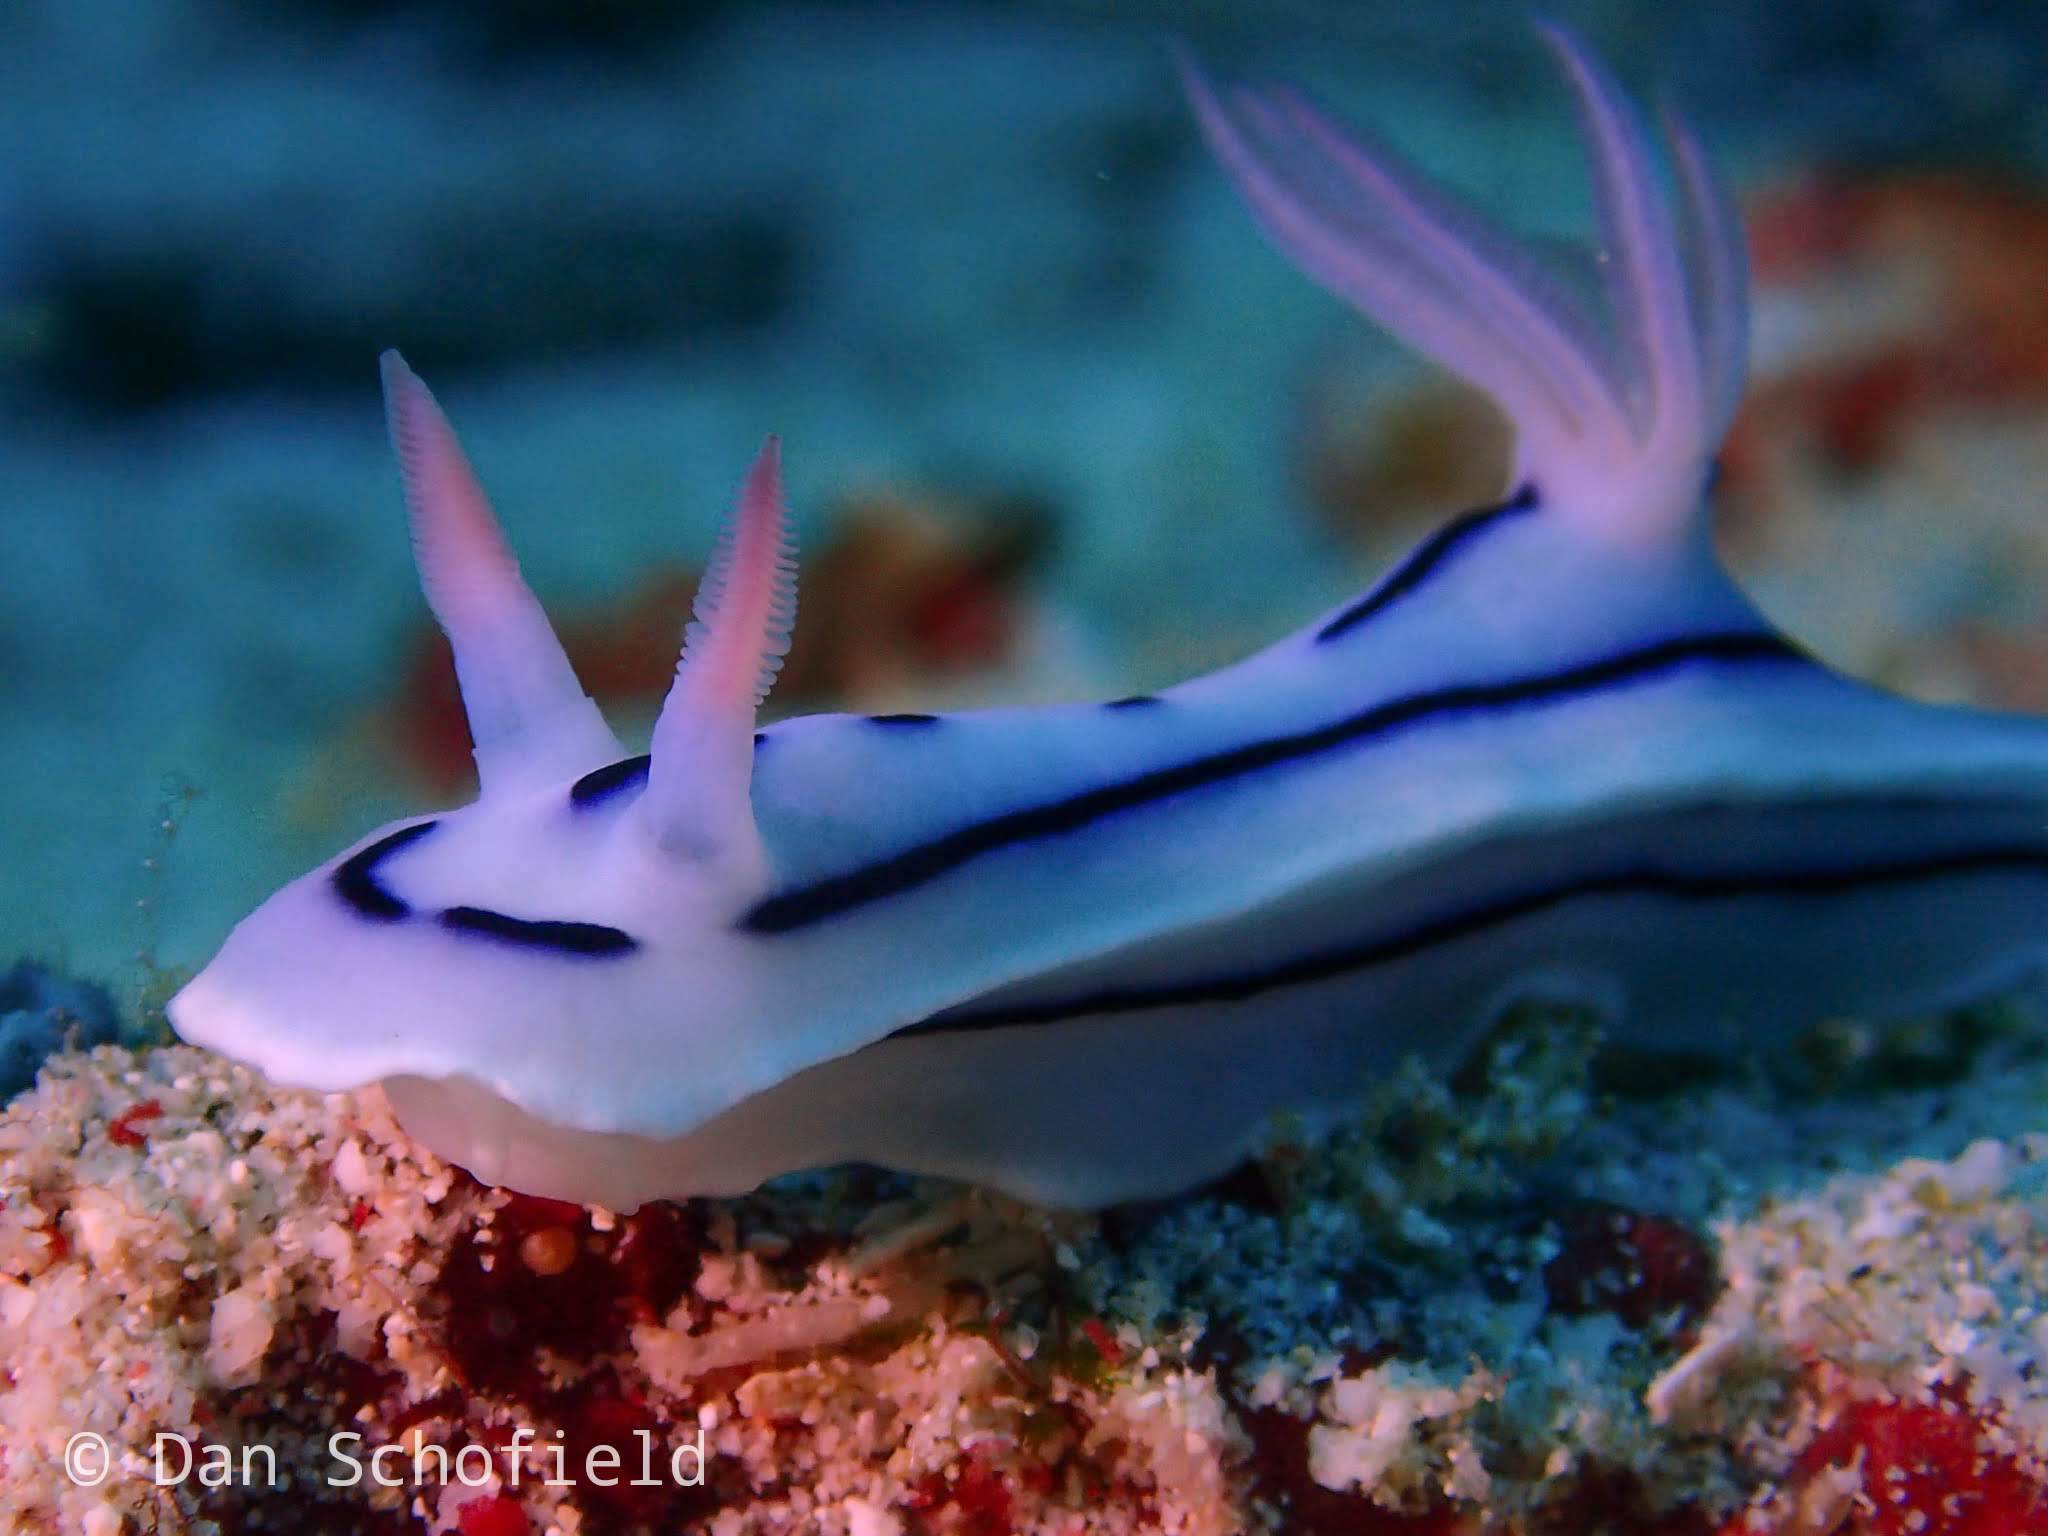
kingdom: Animalia
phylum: Mollusca
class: Gastropoda
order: Nudibranchia
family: Chromodorididae
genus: Chromodoris
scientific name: Chromodoris lochi
